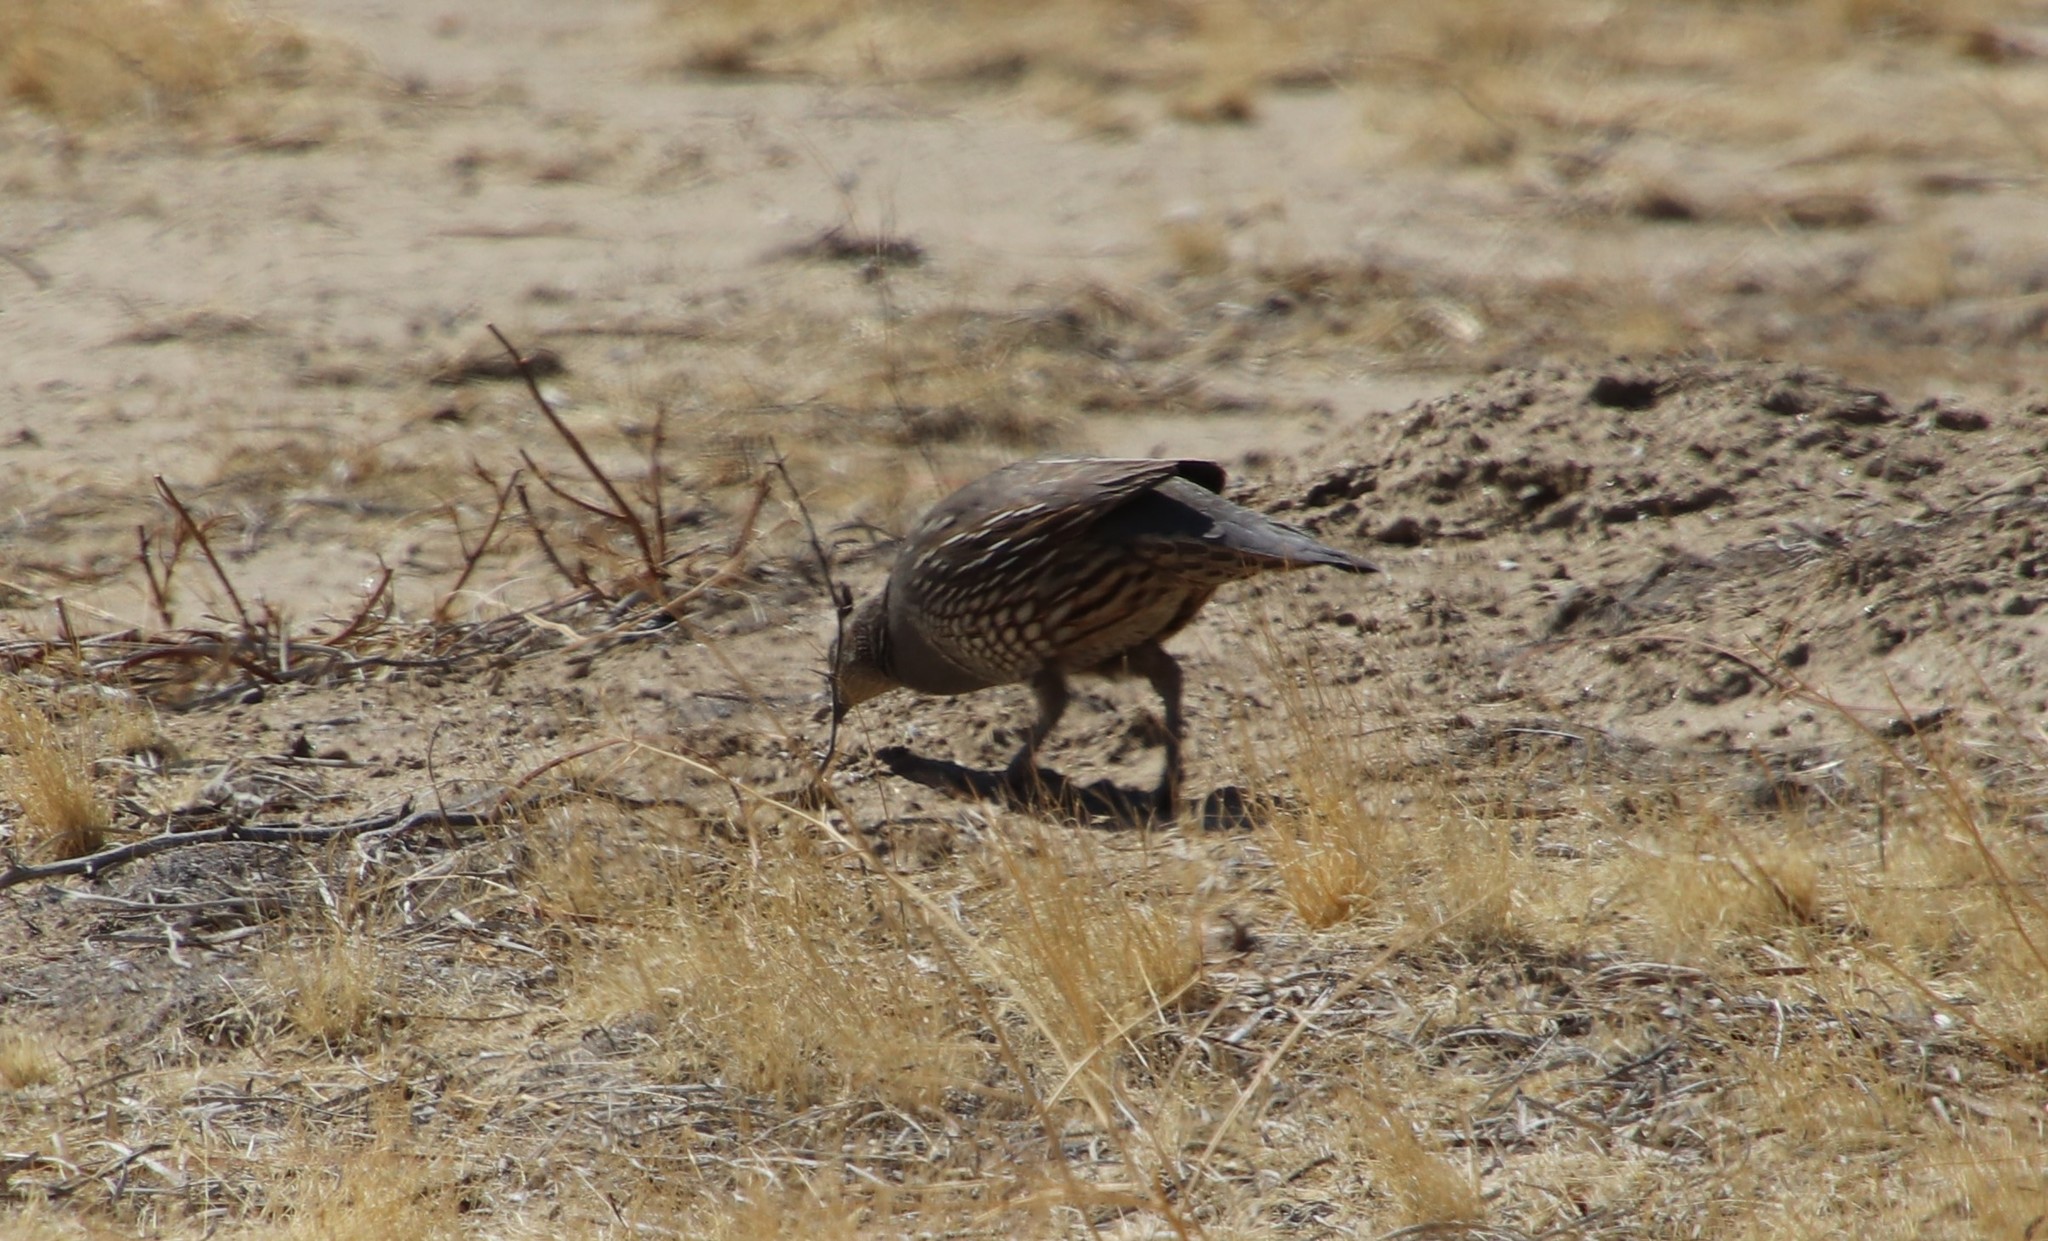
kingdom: Animalia
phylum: Chordata
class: Aves
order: Galliformes
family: Odontophoridae
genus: Callipepla
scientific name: Callipepla californica
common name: California quail
